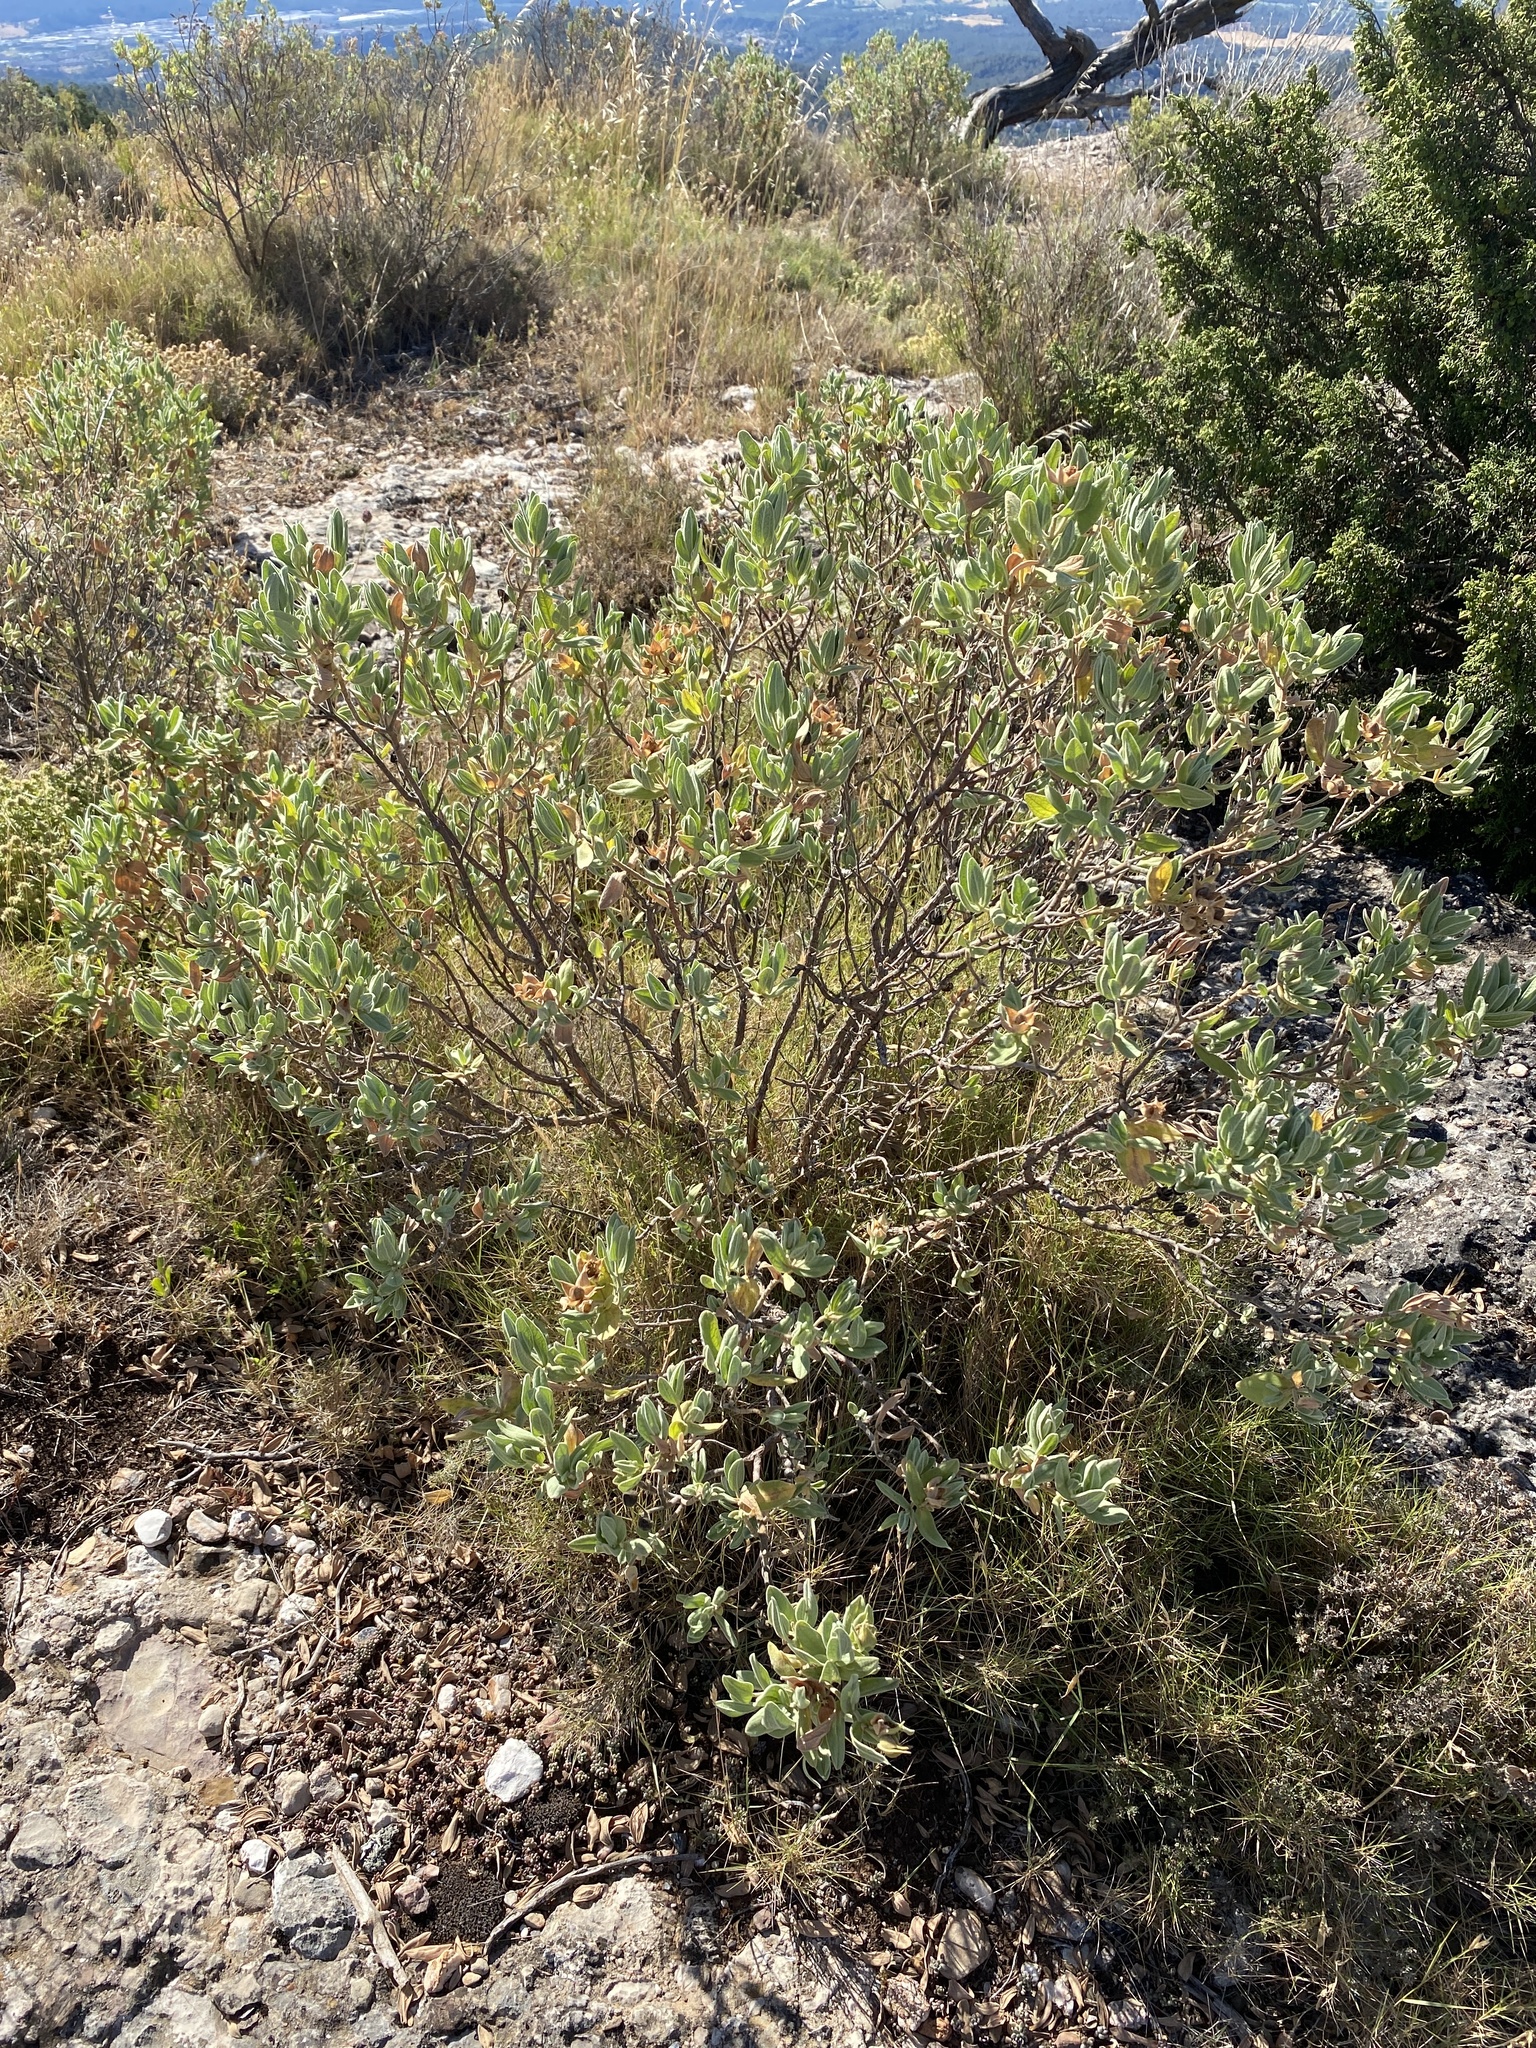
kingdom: Plantae
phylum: Tracheophyta
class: Magnoliopsida
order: Malvales
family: Cistaceae
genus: Cistus
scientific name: Cistus albidus
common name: White-leaf rock-rose
